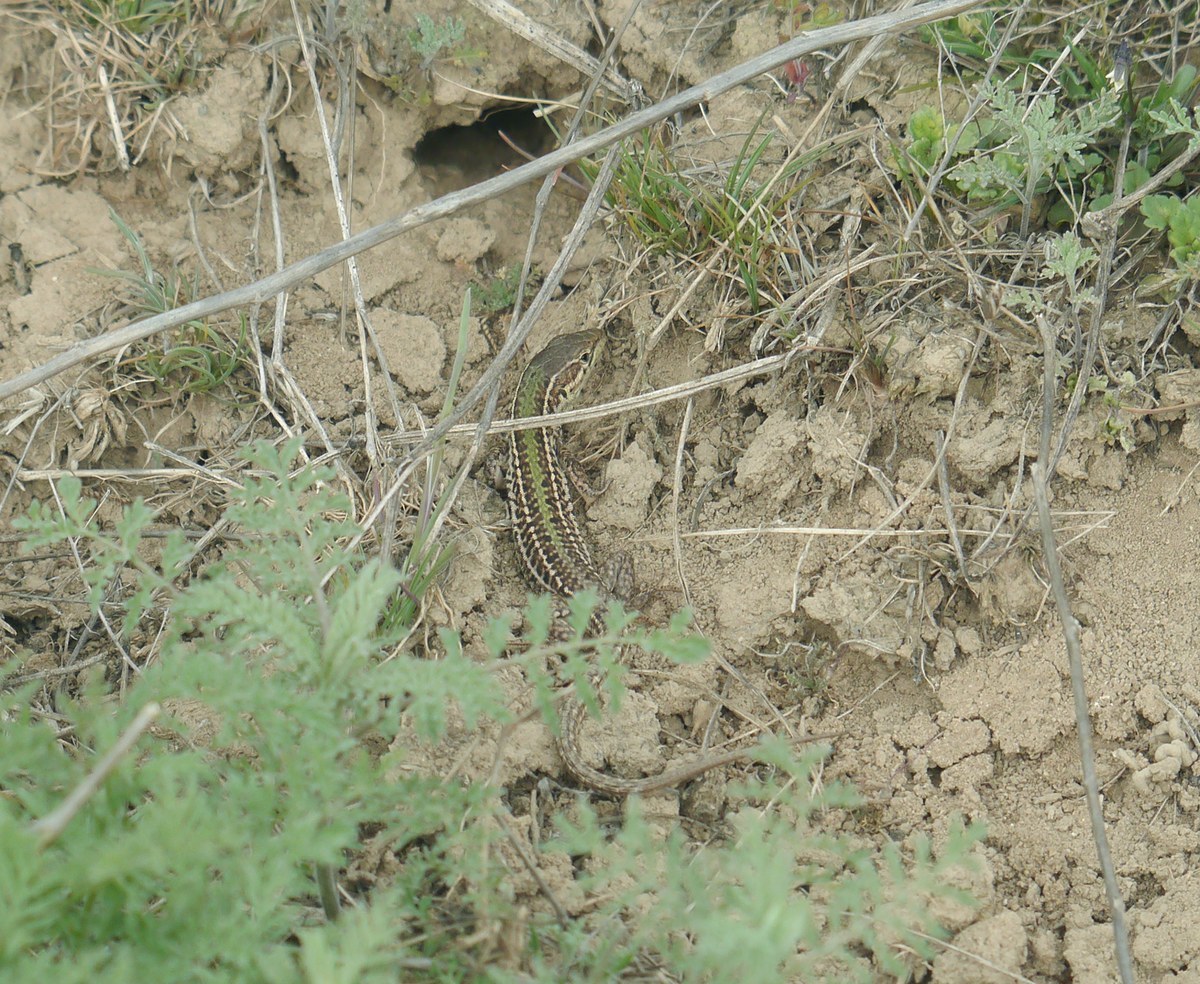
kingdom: Animalia
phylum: Chordata
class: Squamata
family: Lacertidae
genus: Podarcis
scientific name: Podarcis tauricus
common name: Balkan wall lizard
